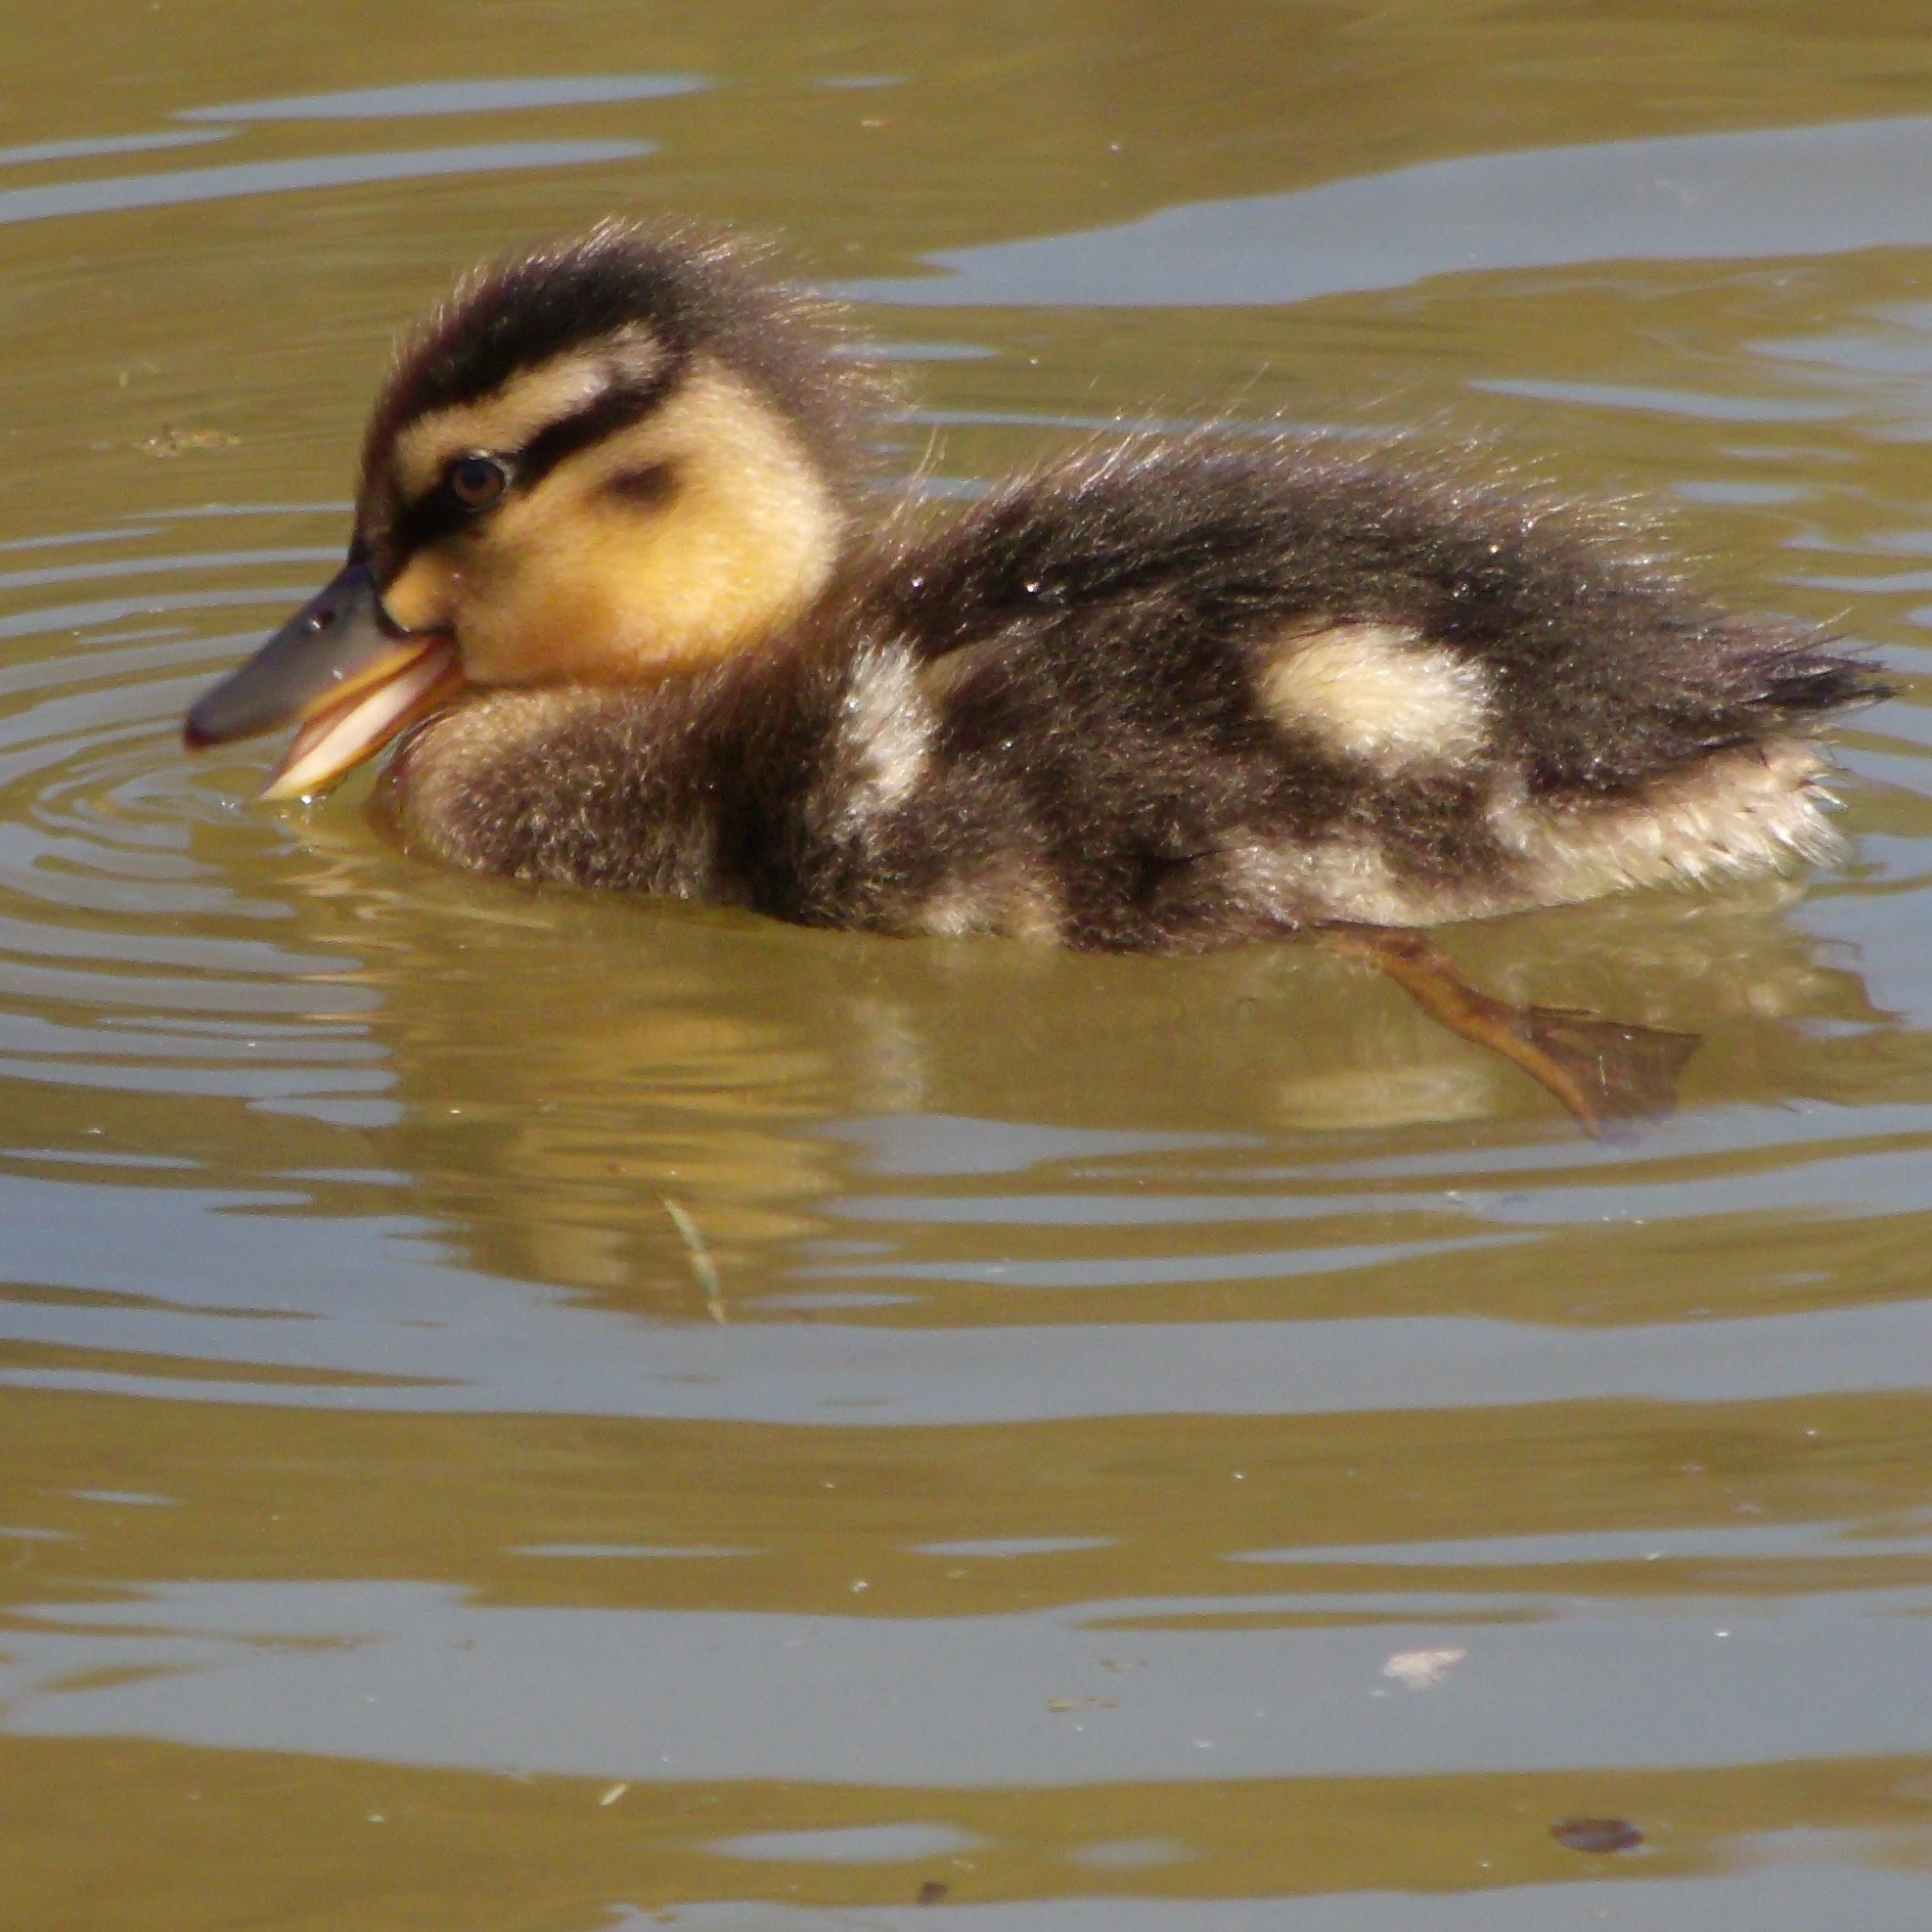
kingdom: Animalia
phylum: Chordata
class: Aves
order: Anseriformes
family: Anatidae
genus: Anas
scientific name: Anas platyrhynchos
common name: Mallard
